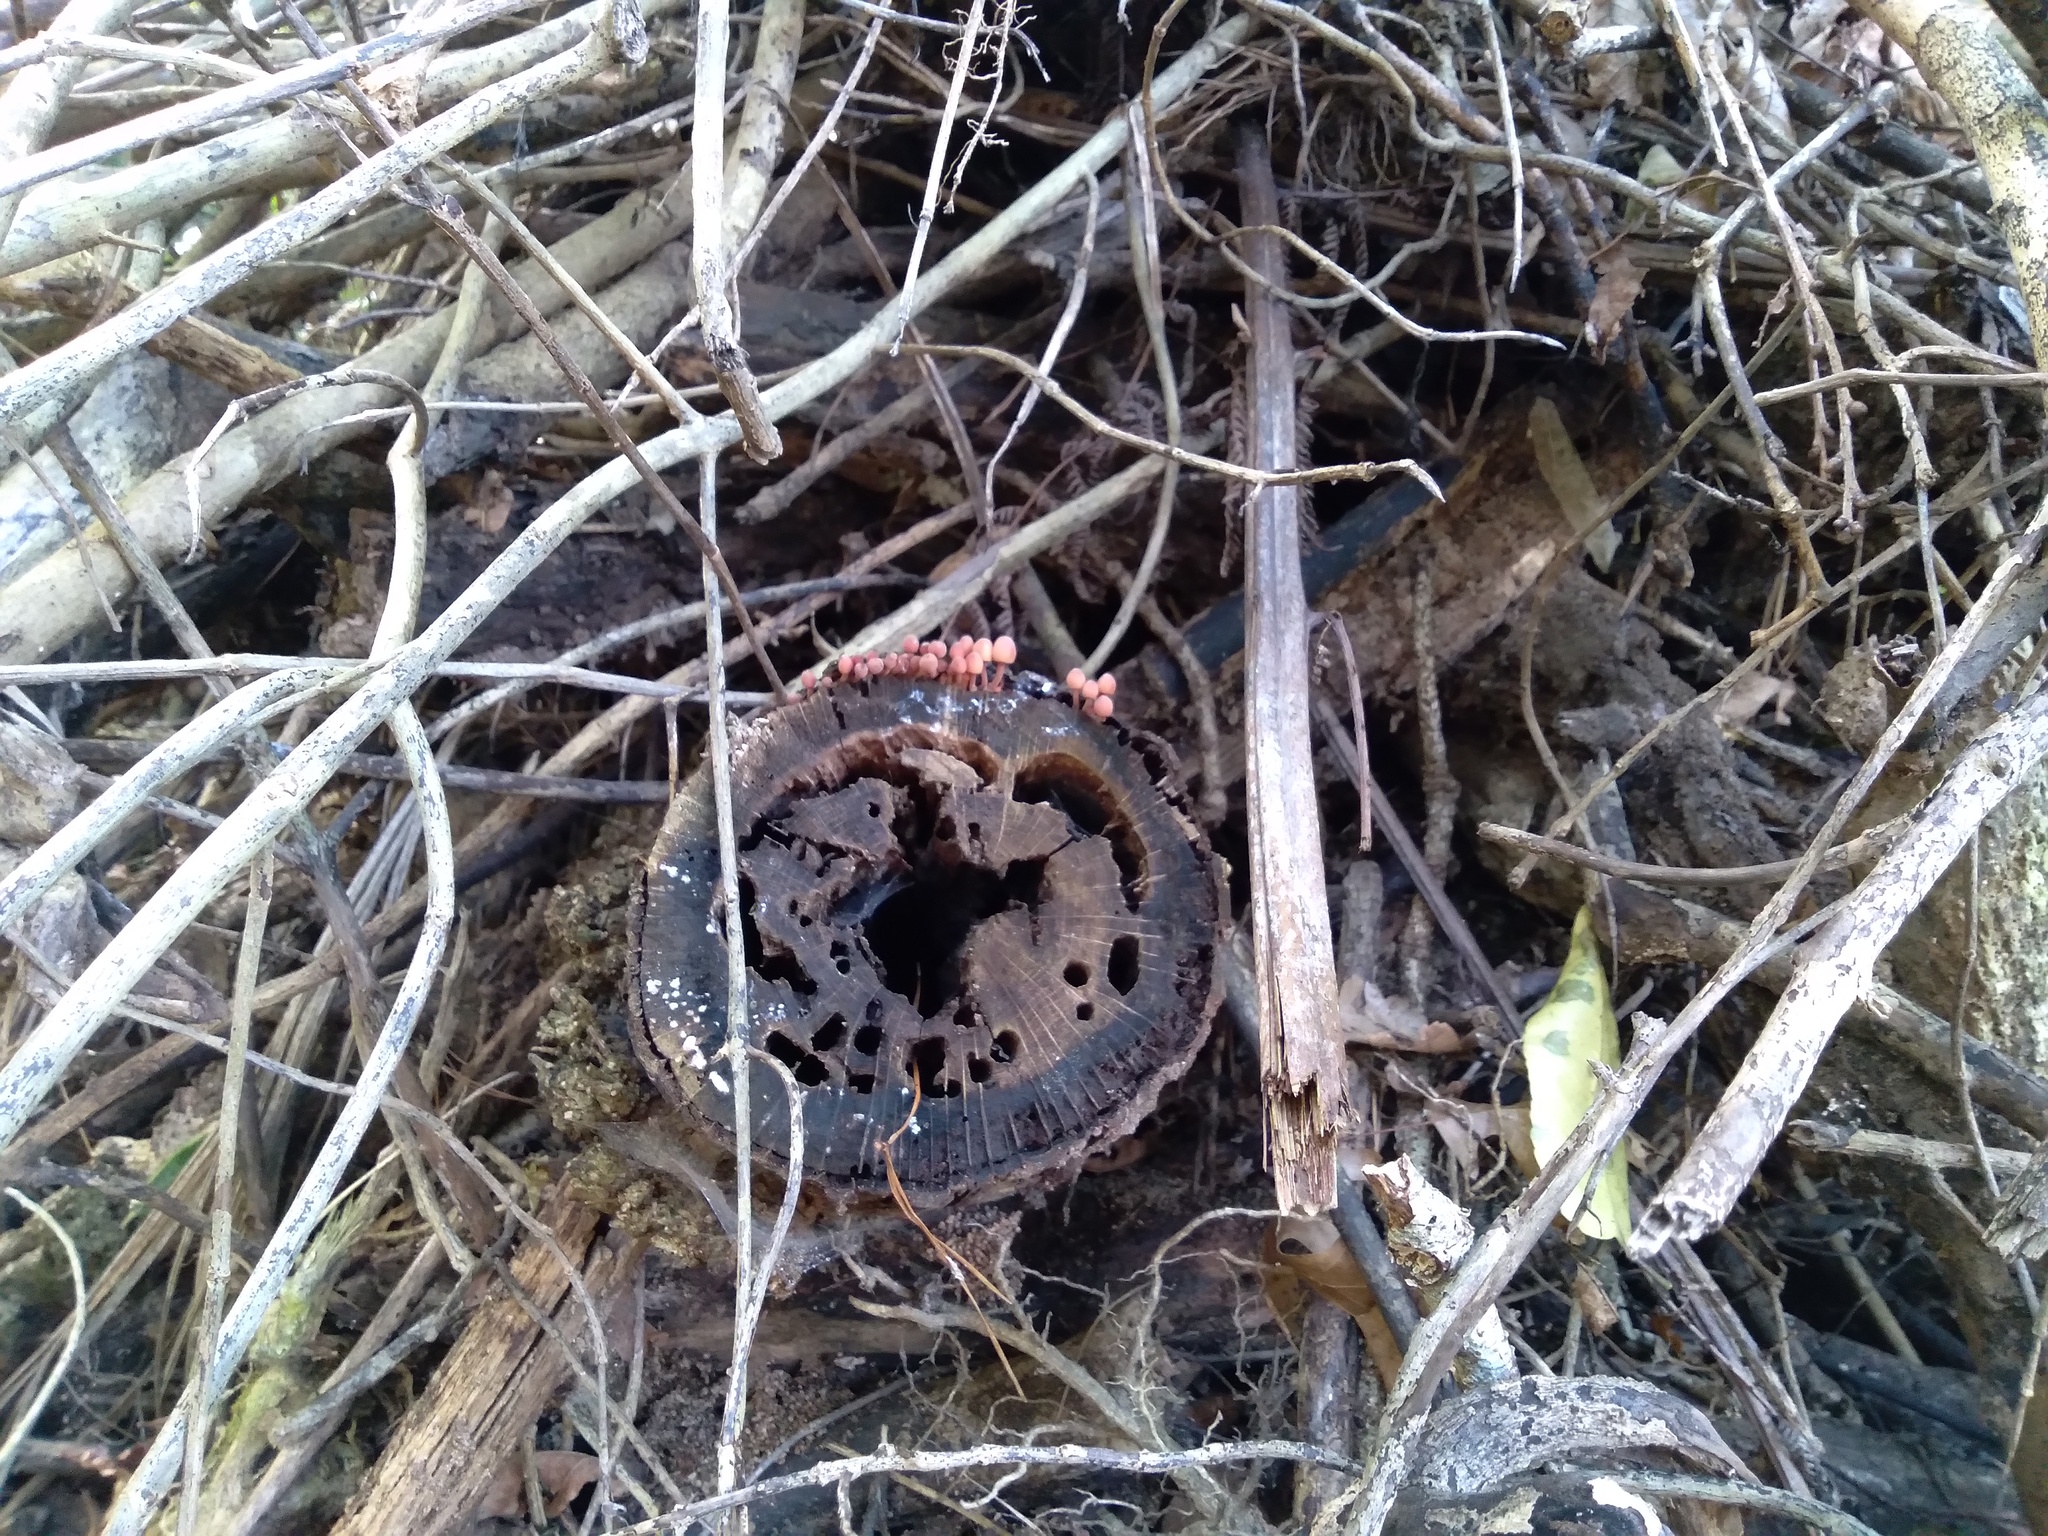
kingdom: Fungi
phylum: Basidiomycota
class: Agaricomycetes
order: Agaricales
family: Mycenaceae
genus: Mycena
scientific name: Mycena mariae
